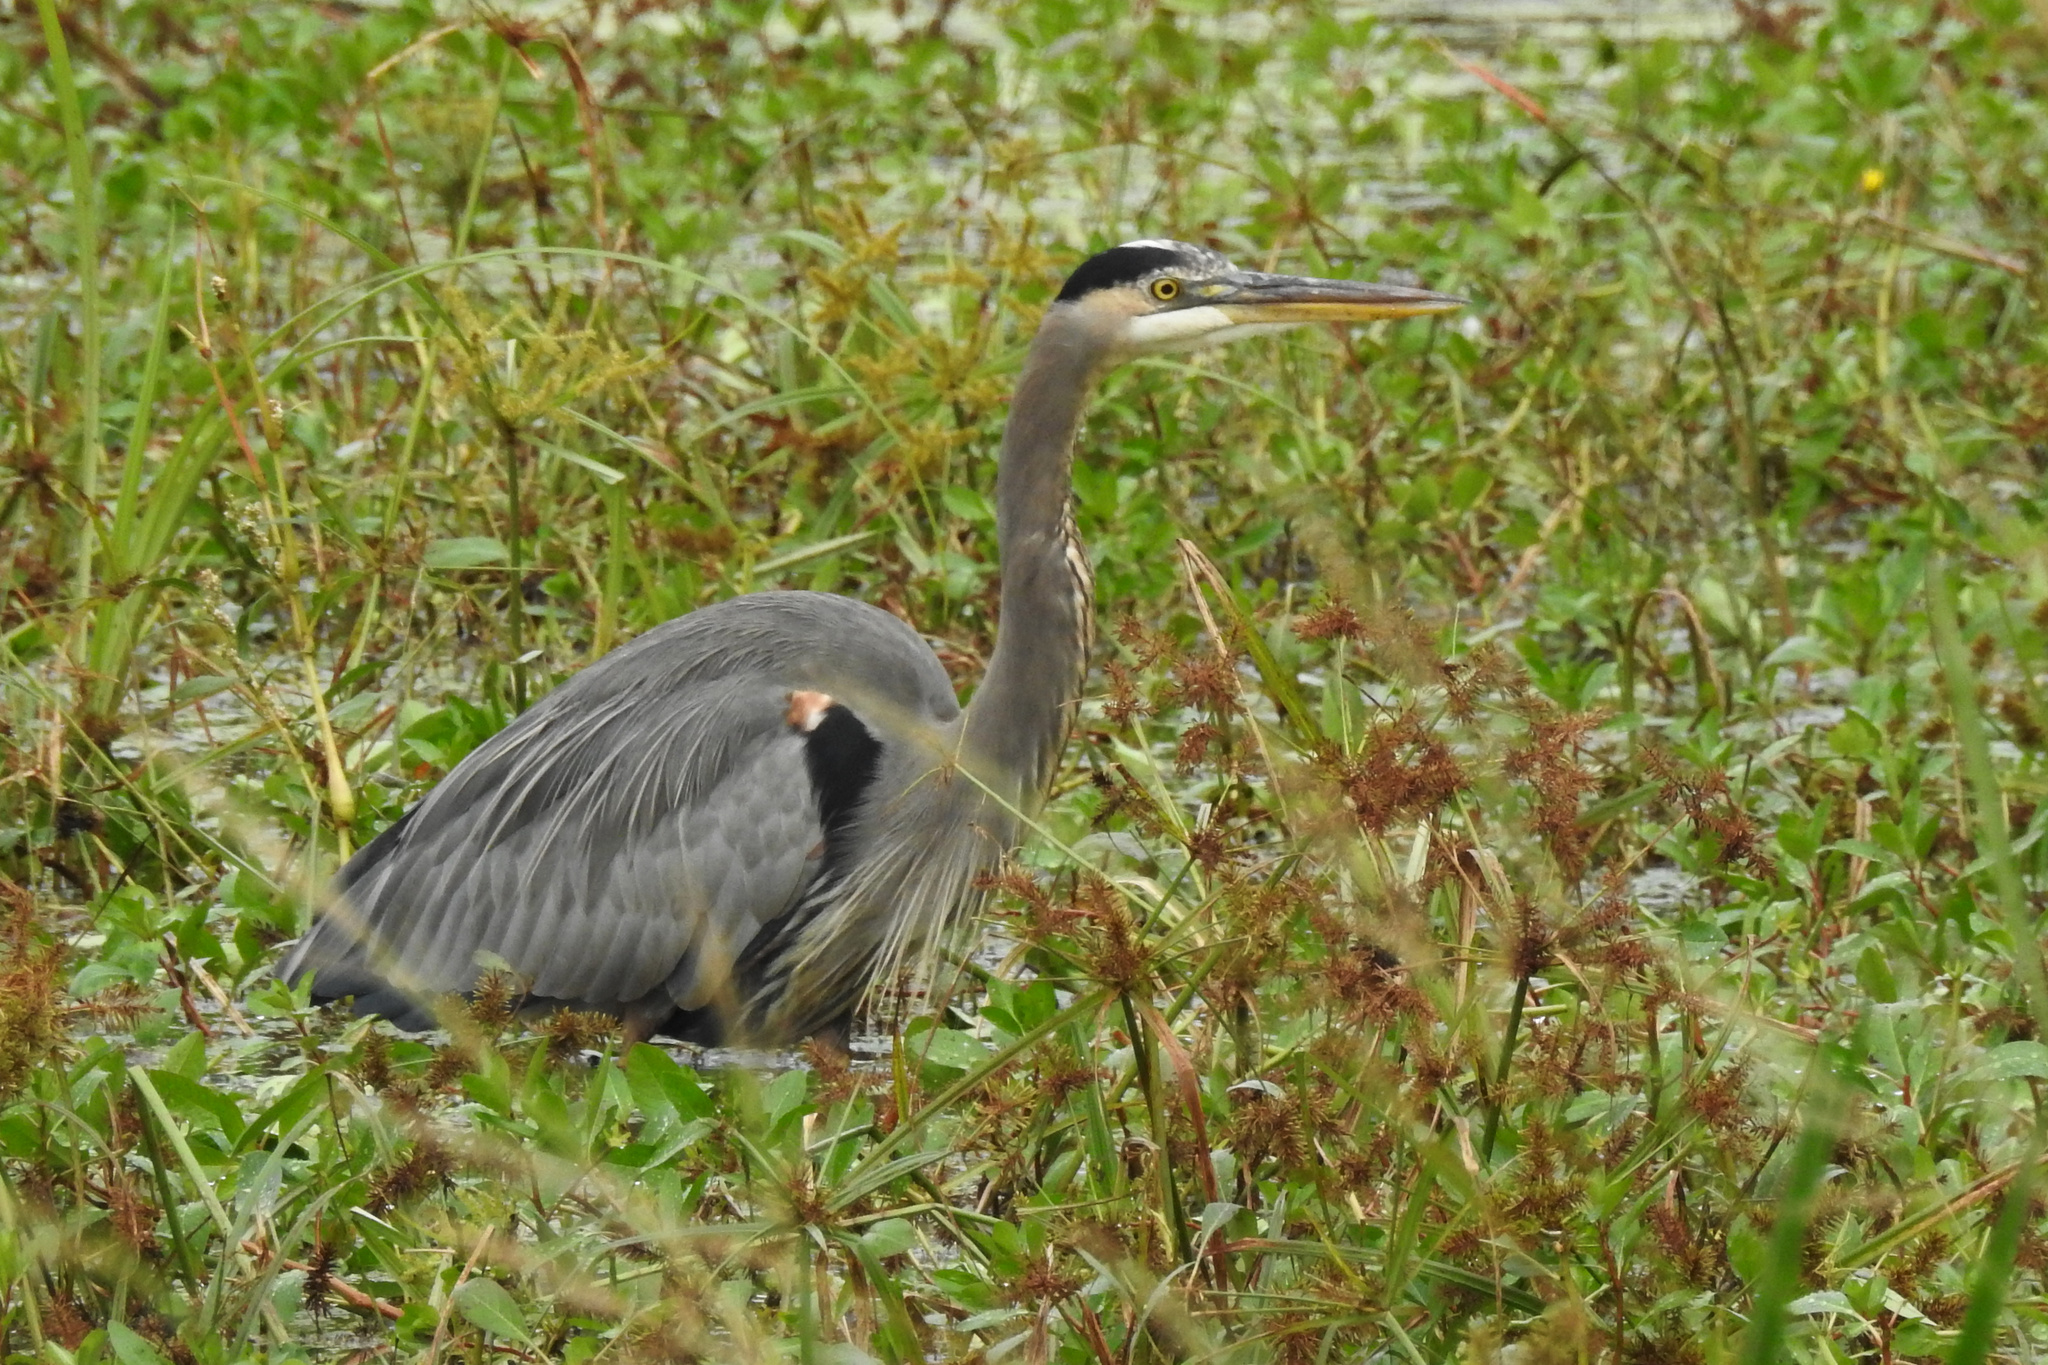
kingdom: Animalia
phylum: Chordata
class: Aves
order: Pelecaniformes
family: Ardeidae
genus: Ardea
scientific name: Ardea herodias
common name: Great blue heron
